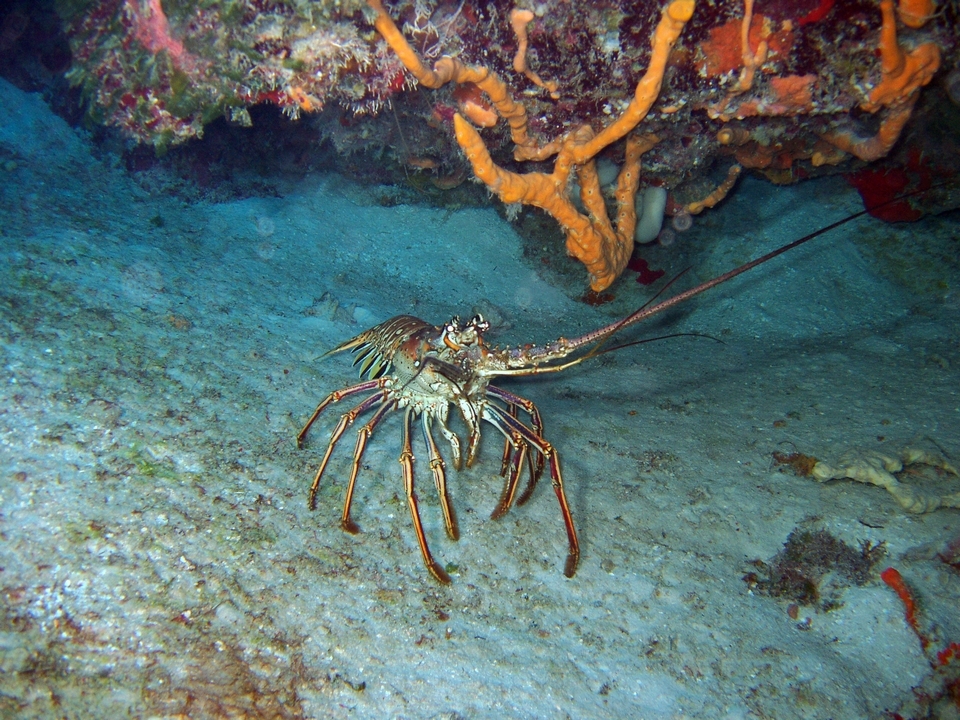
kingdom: Animalia
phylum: Arthropoda
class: Malacostraca
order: Decapoda
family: Palinuridae
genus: Panulirus
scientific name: Panulirus argus
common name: Caribbean spiny lobster
